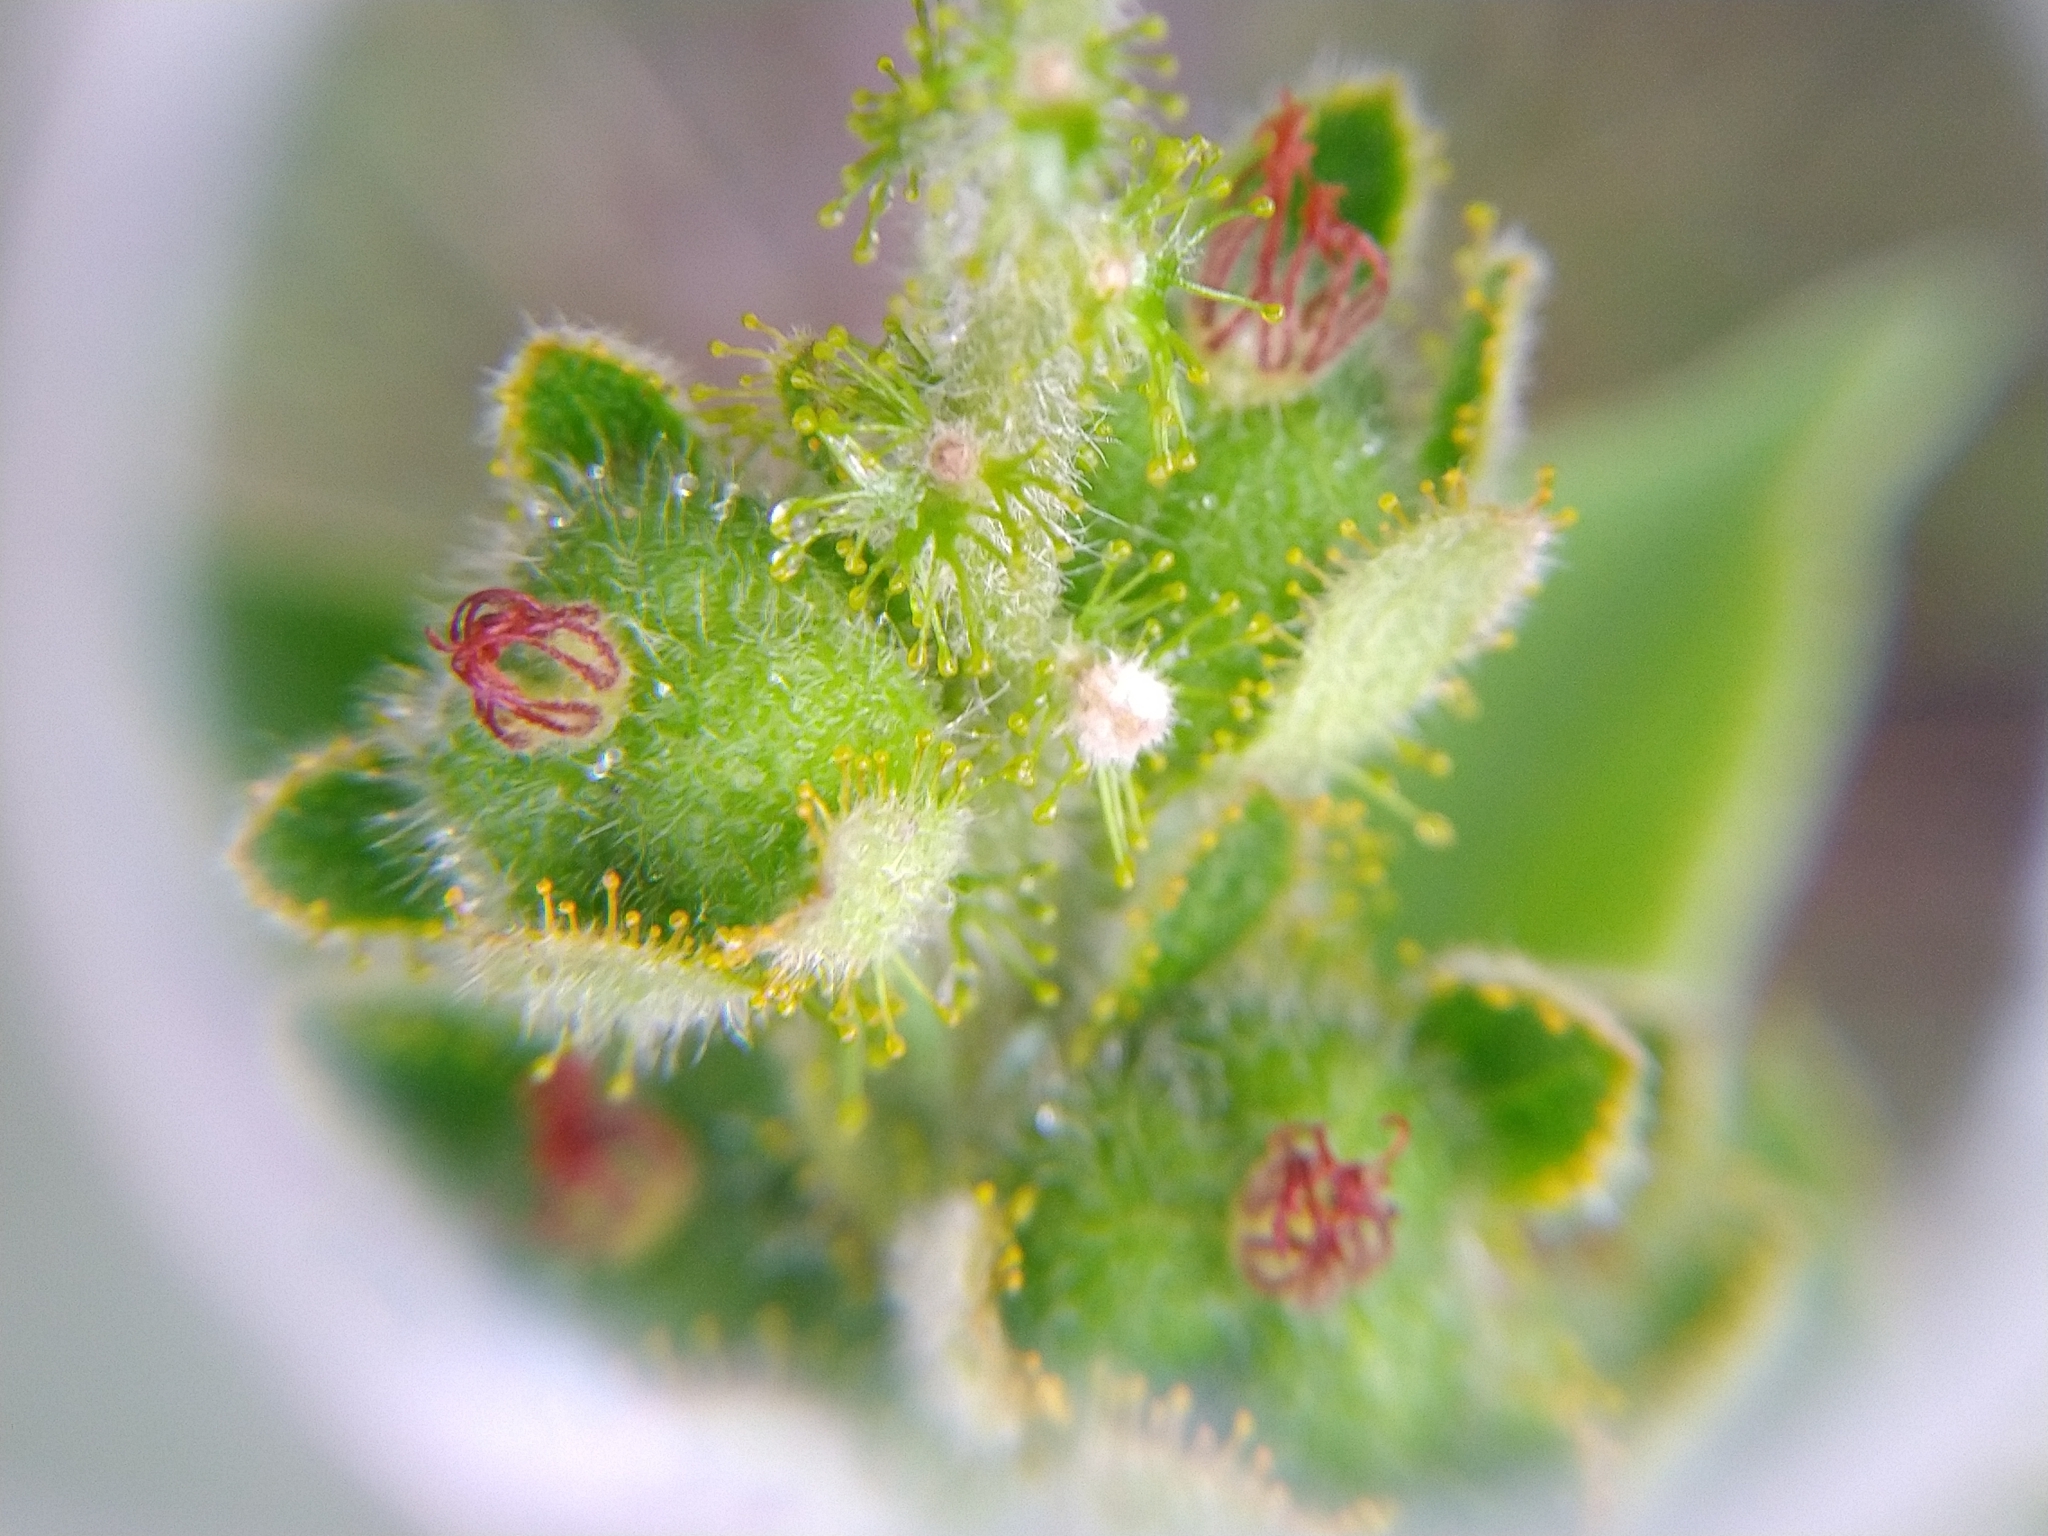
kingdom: Plantae
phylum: Tracheophyta
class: Magnoliopsida
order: Malpighiales
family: Euphorbiaceae
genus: Croton
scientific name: Croton ciliatoglandulifer
